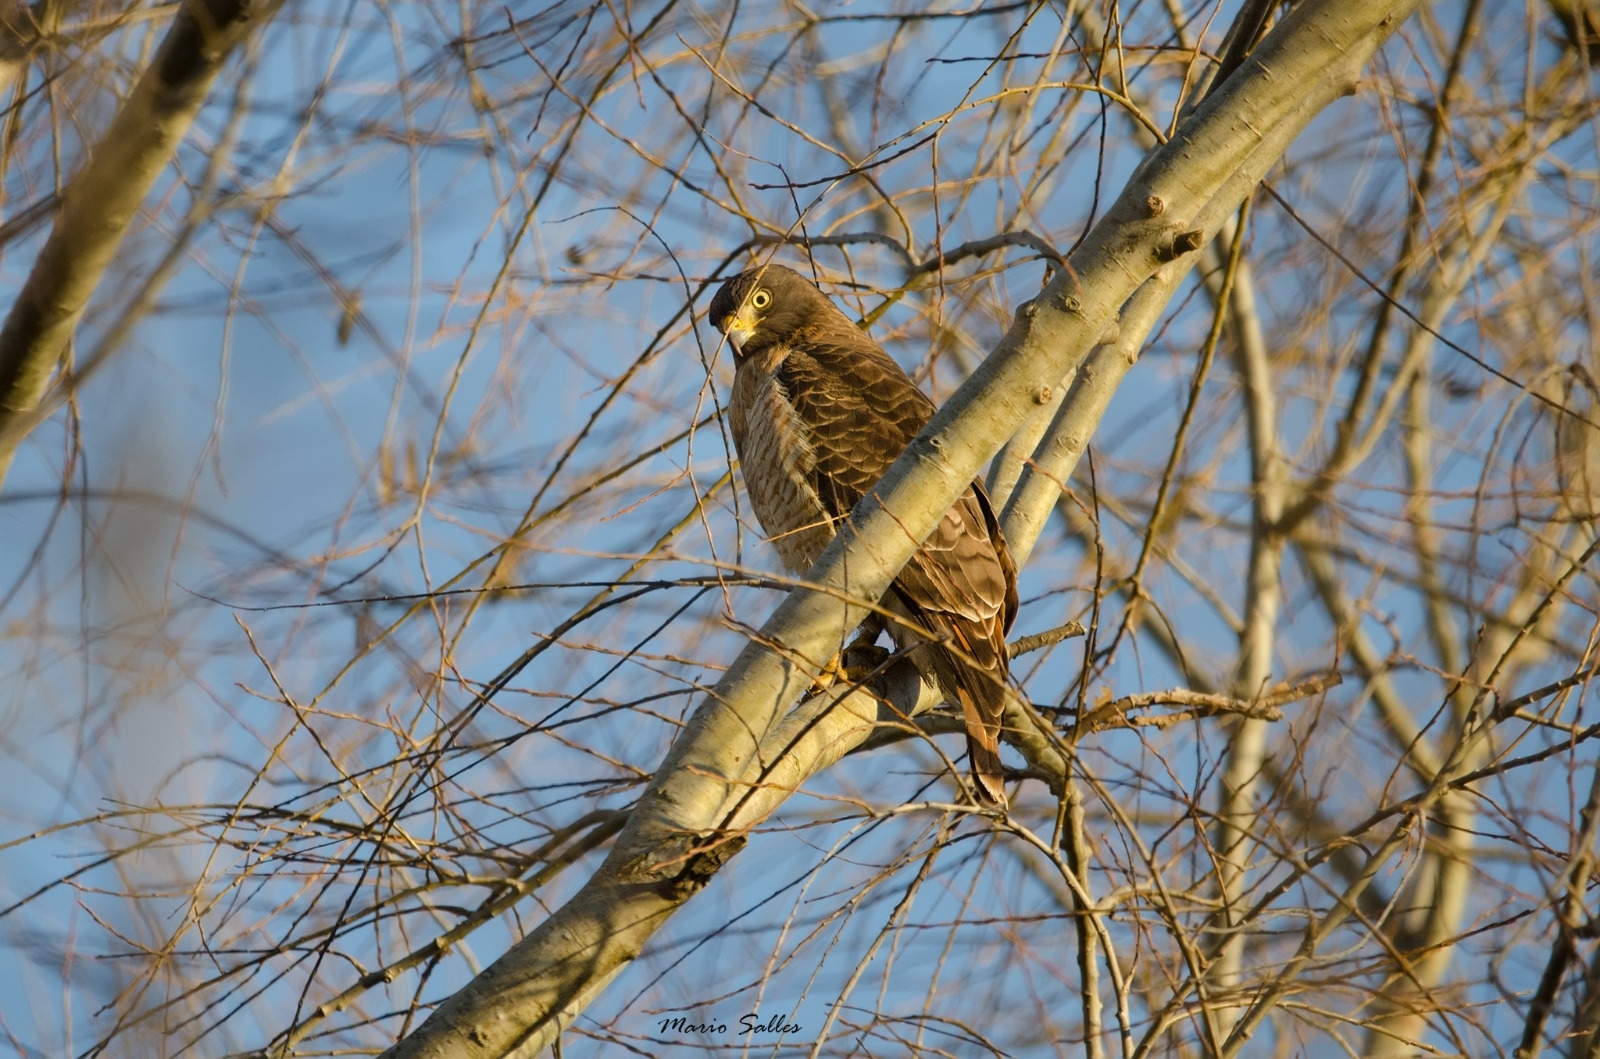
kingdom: Animalia
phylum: Chordata
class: Aves
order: Accipitriformes
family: Accipitridae
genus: Rupornis
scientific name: Rupornis magnirostris
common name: Roadside hawk
